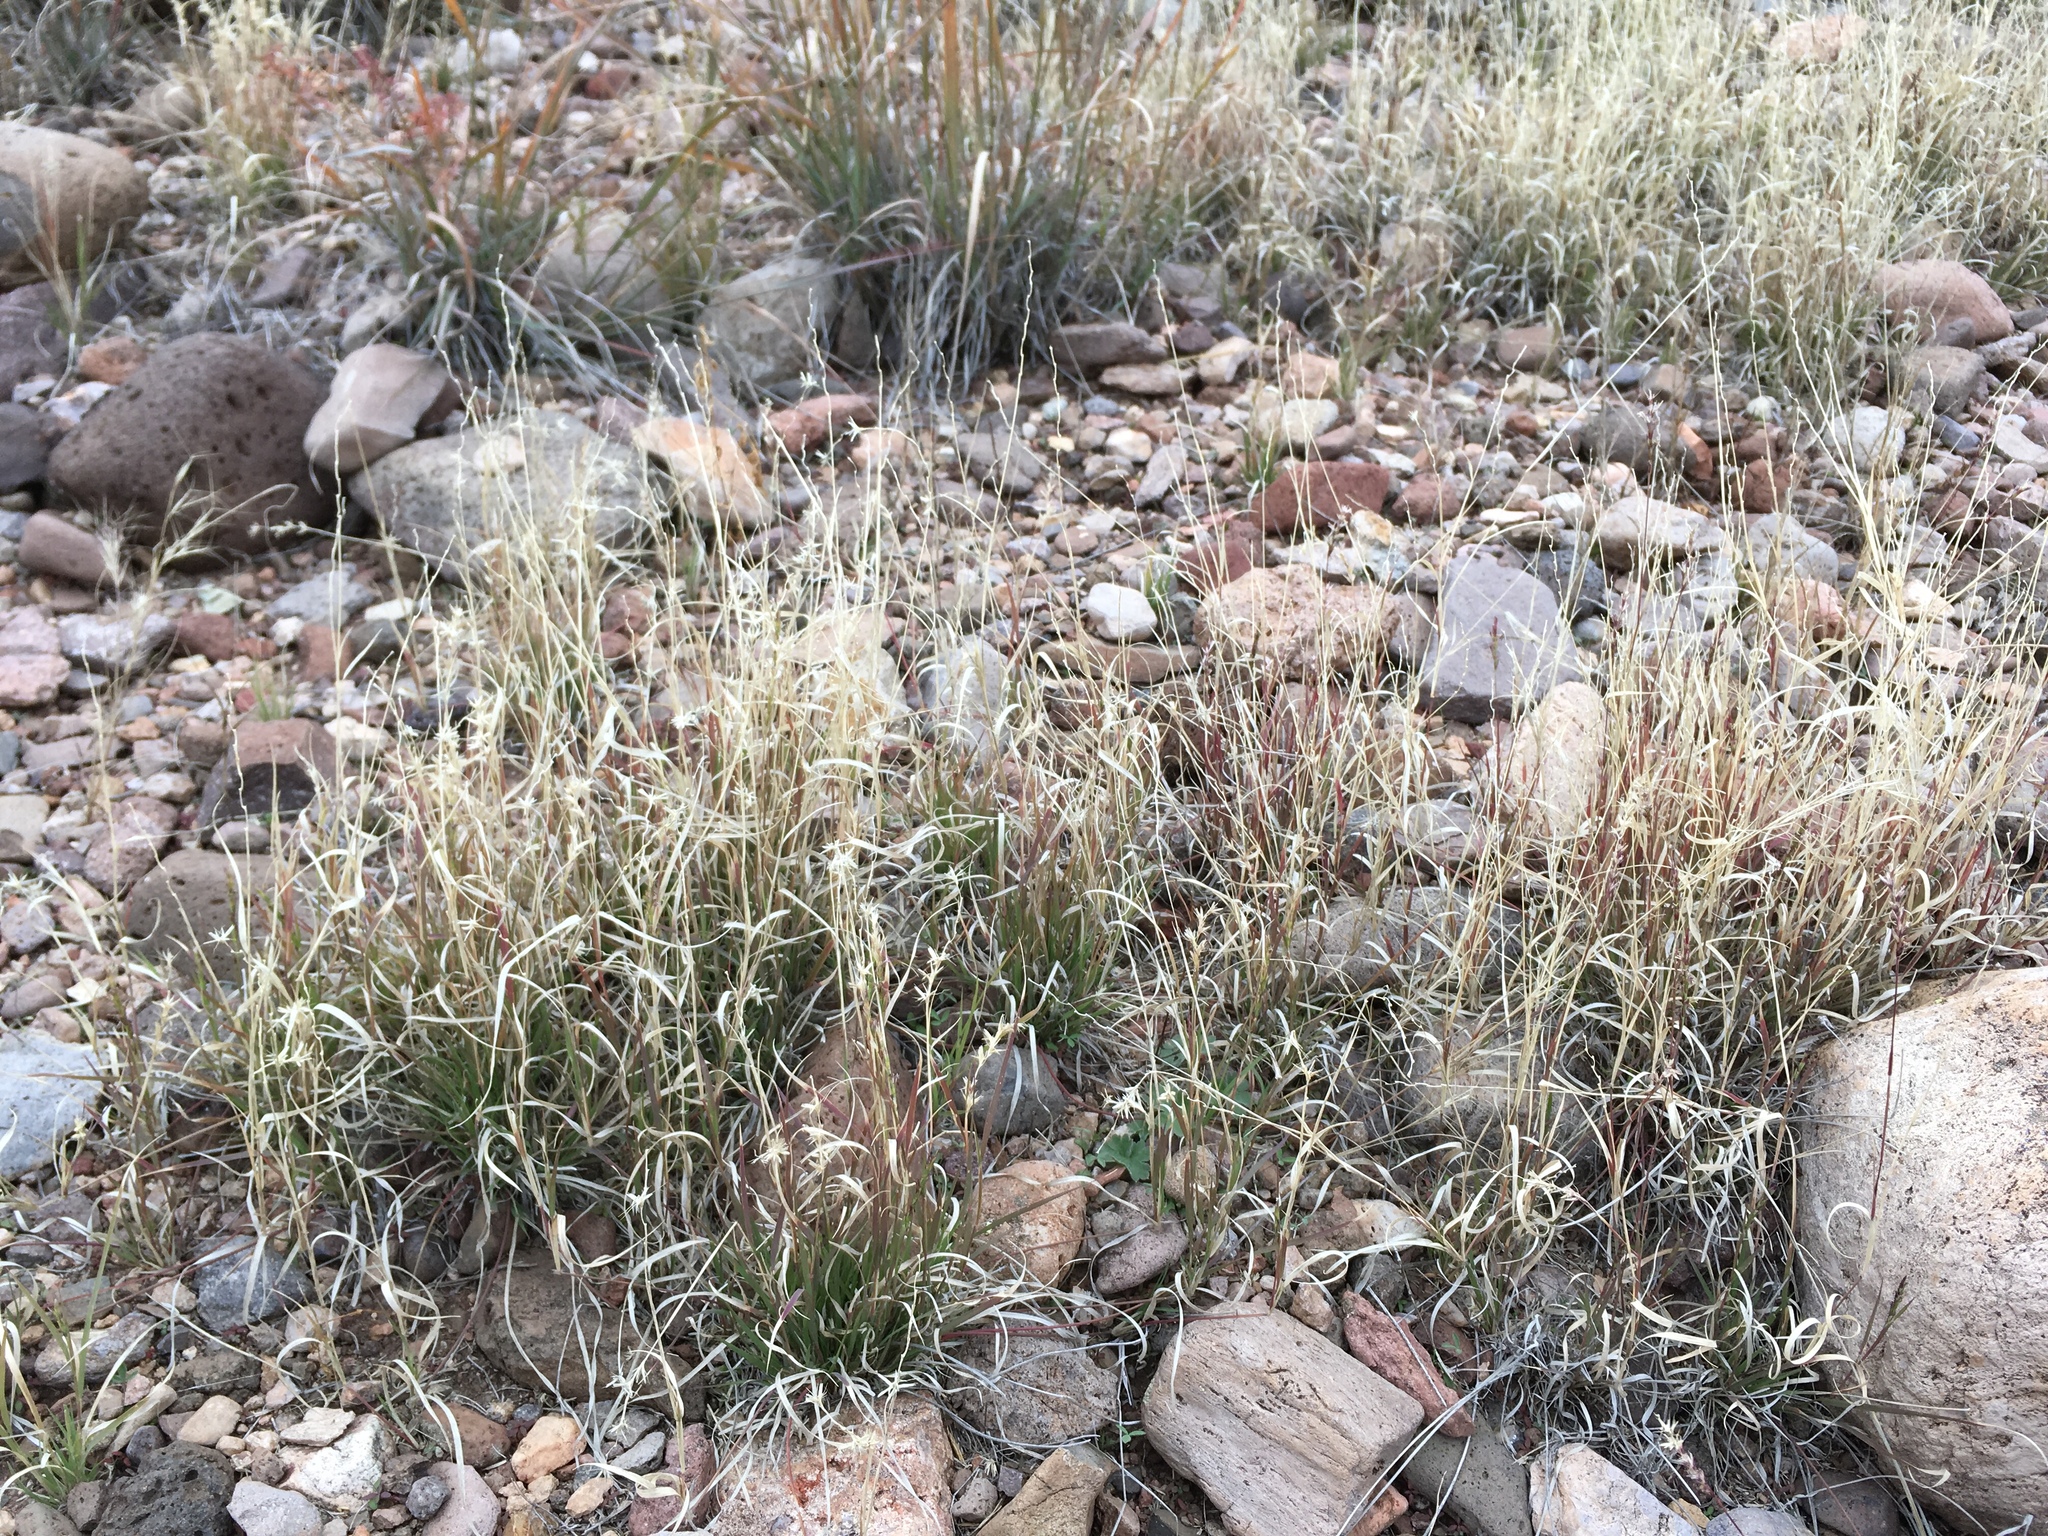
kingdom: Plantae
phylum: Tracheophyta
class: Liliopsida
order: Poales
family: Poaceae
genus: Hilaria
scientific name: Hilaria belangeri
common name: Curly-mesquite
